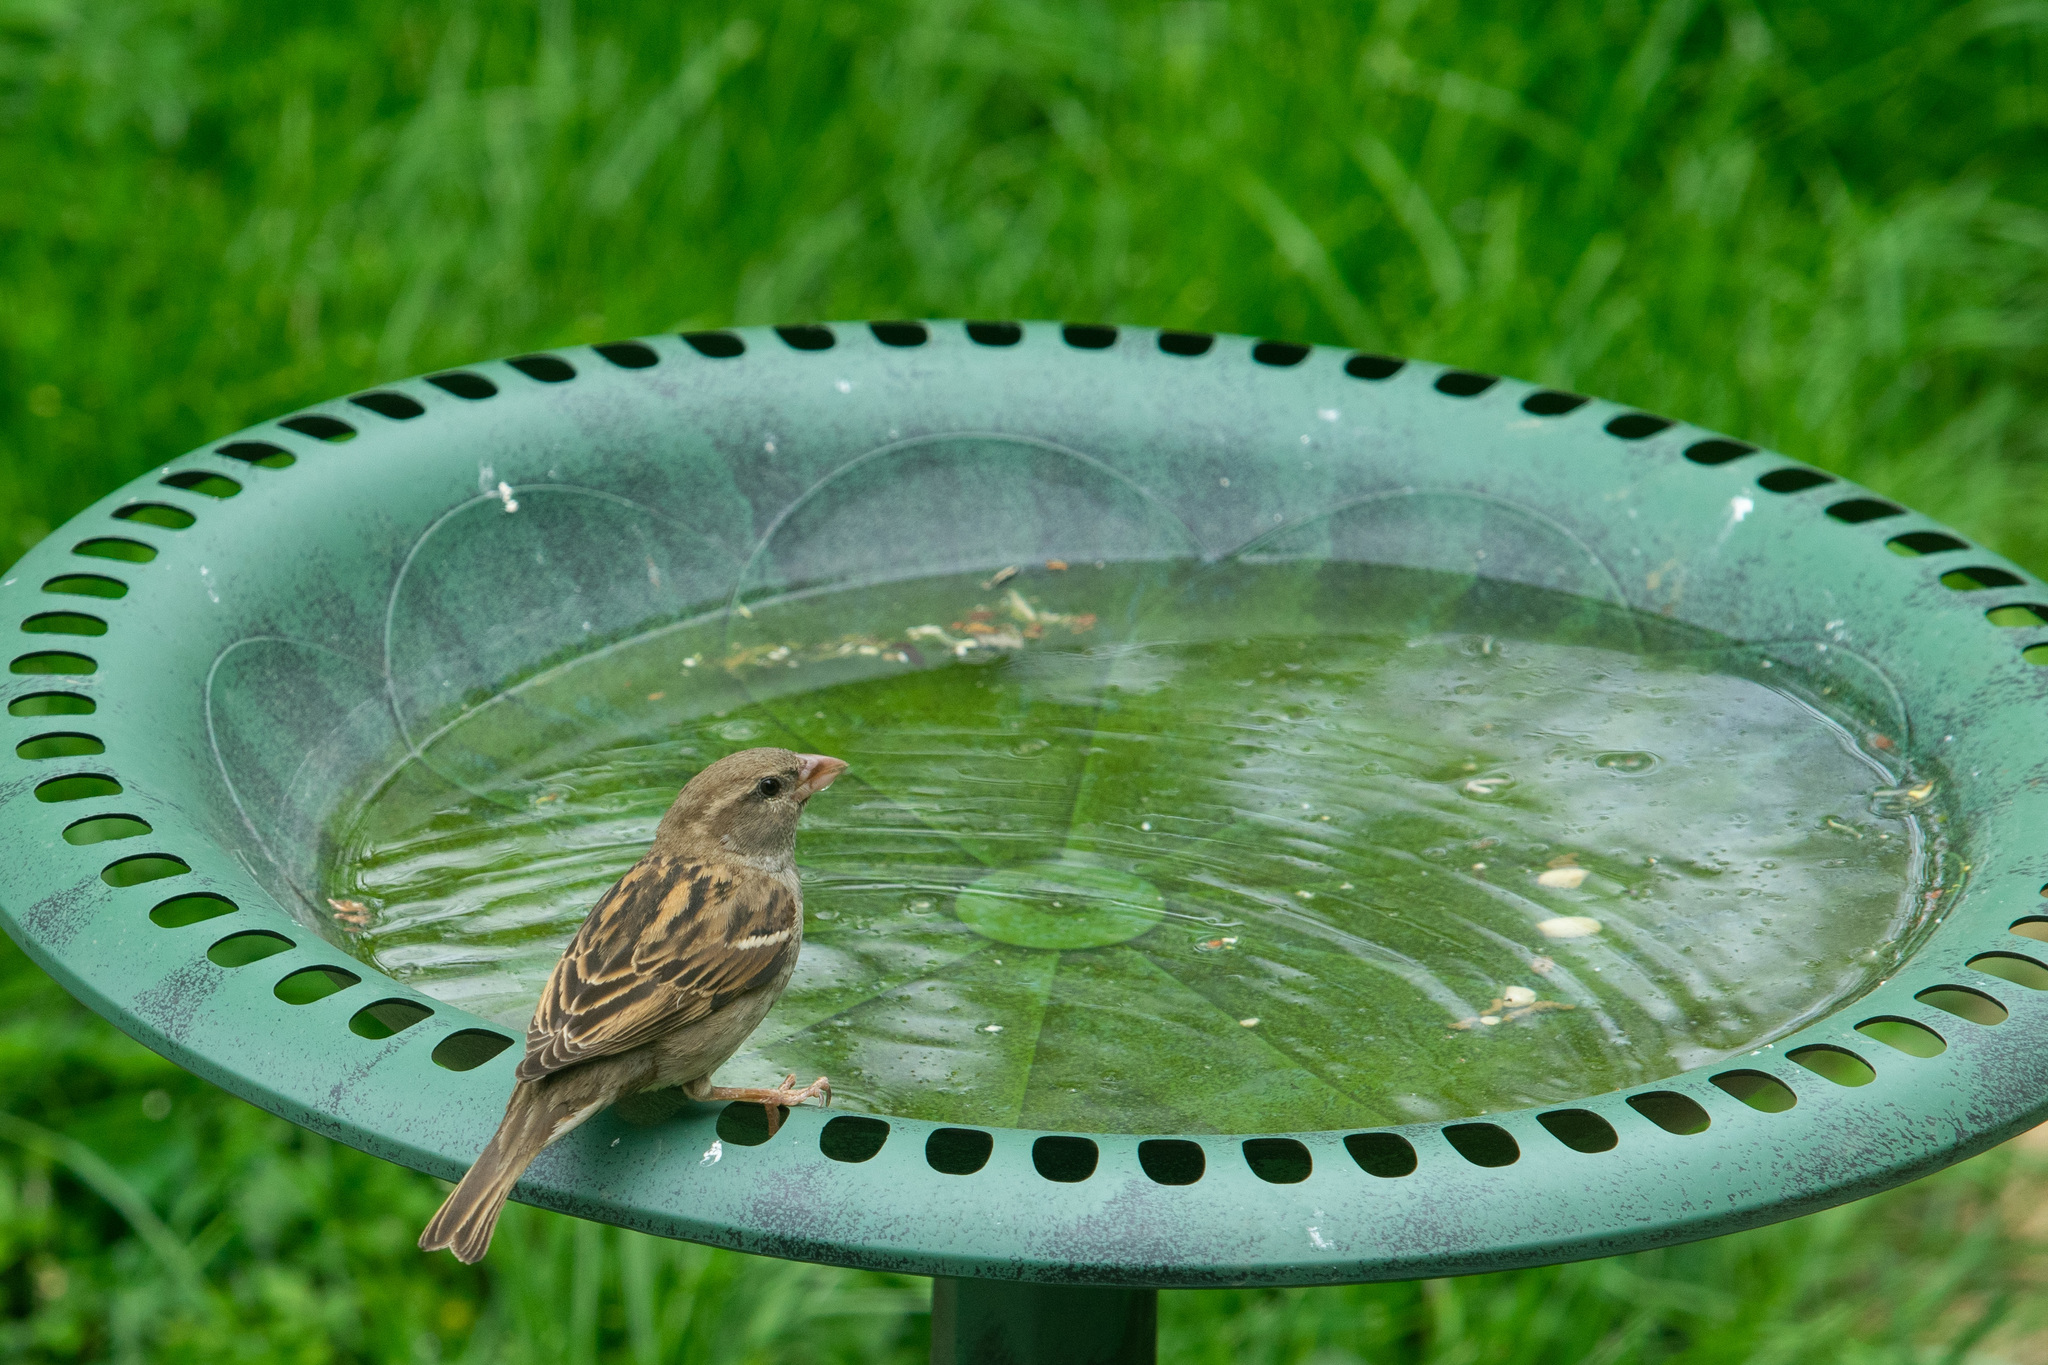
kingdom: Animalia
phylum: Chordata
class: Aves
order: Passeriformes
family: Passeridae
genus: Passer
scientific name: Passer domesticus
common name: House sparrow
